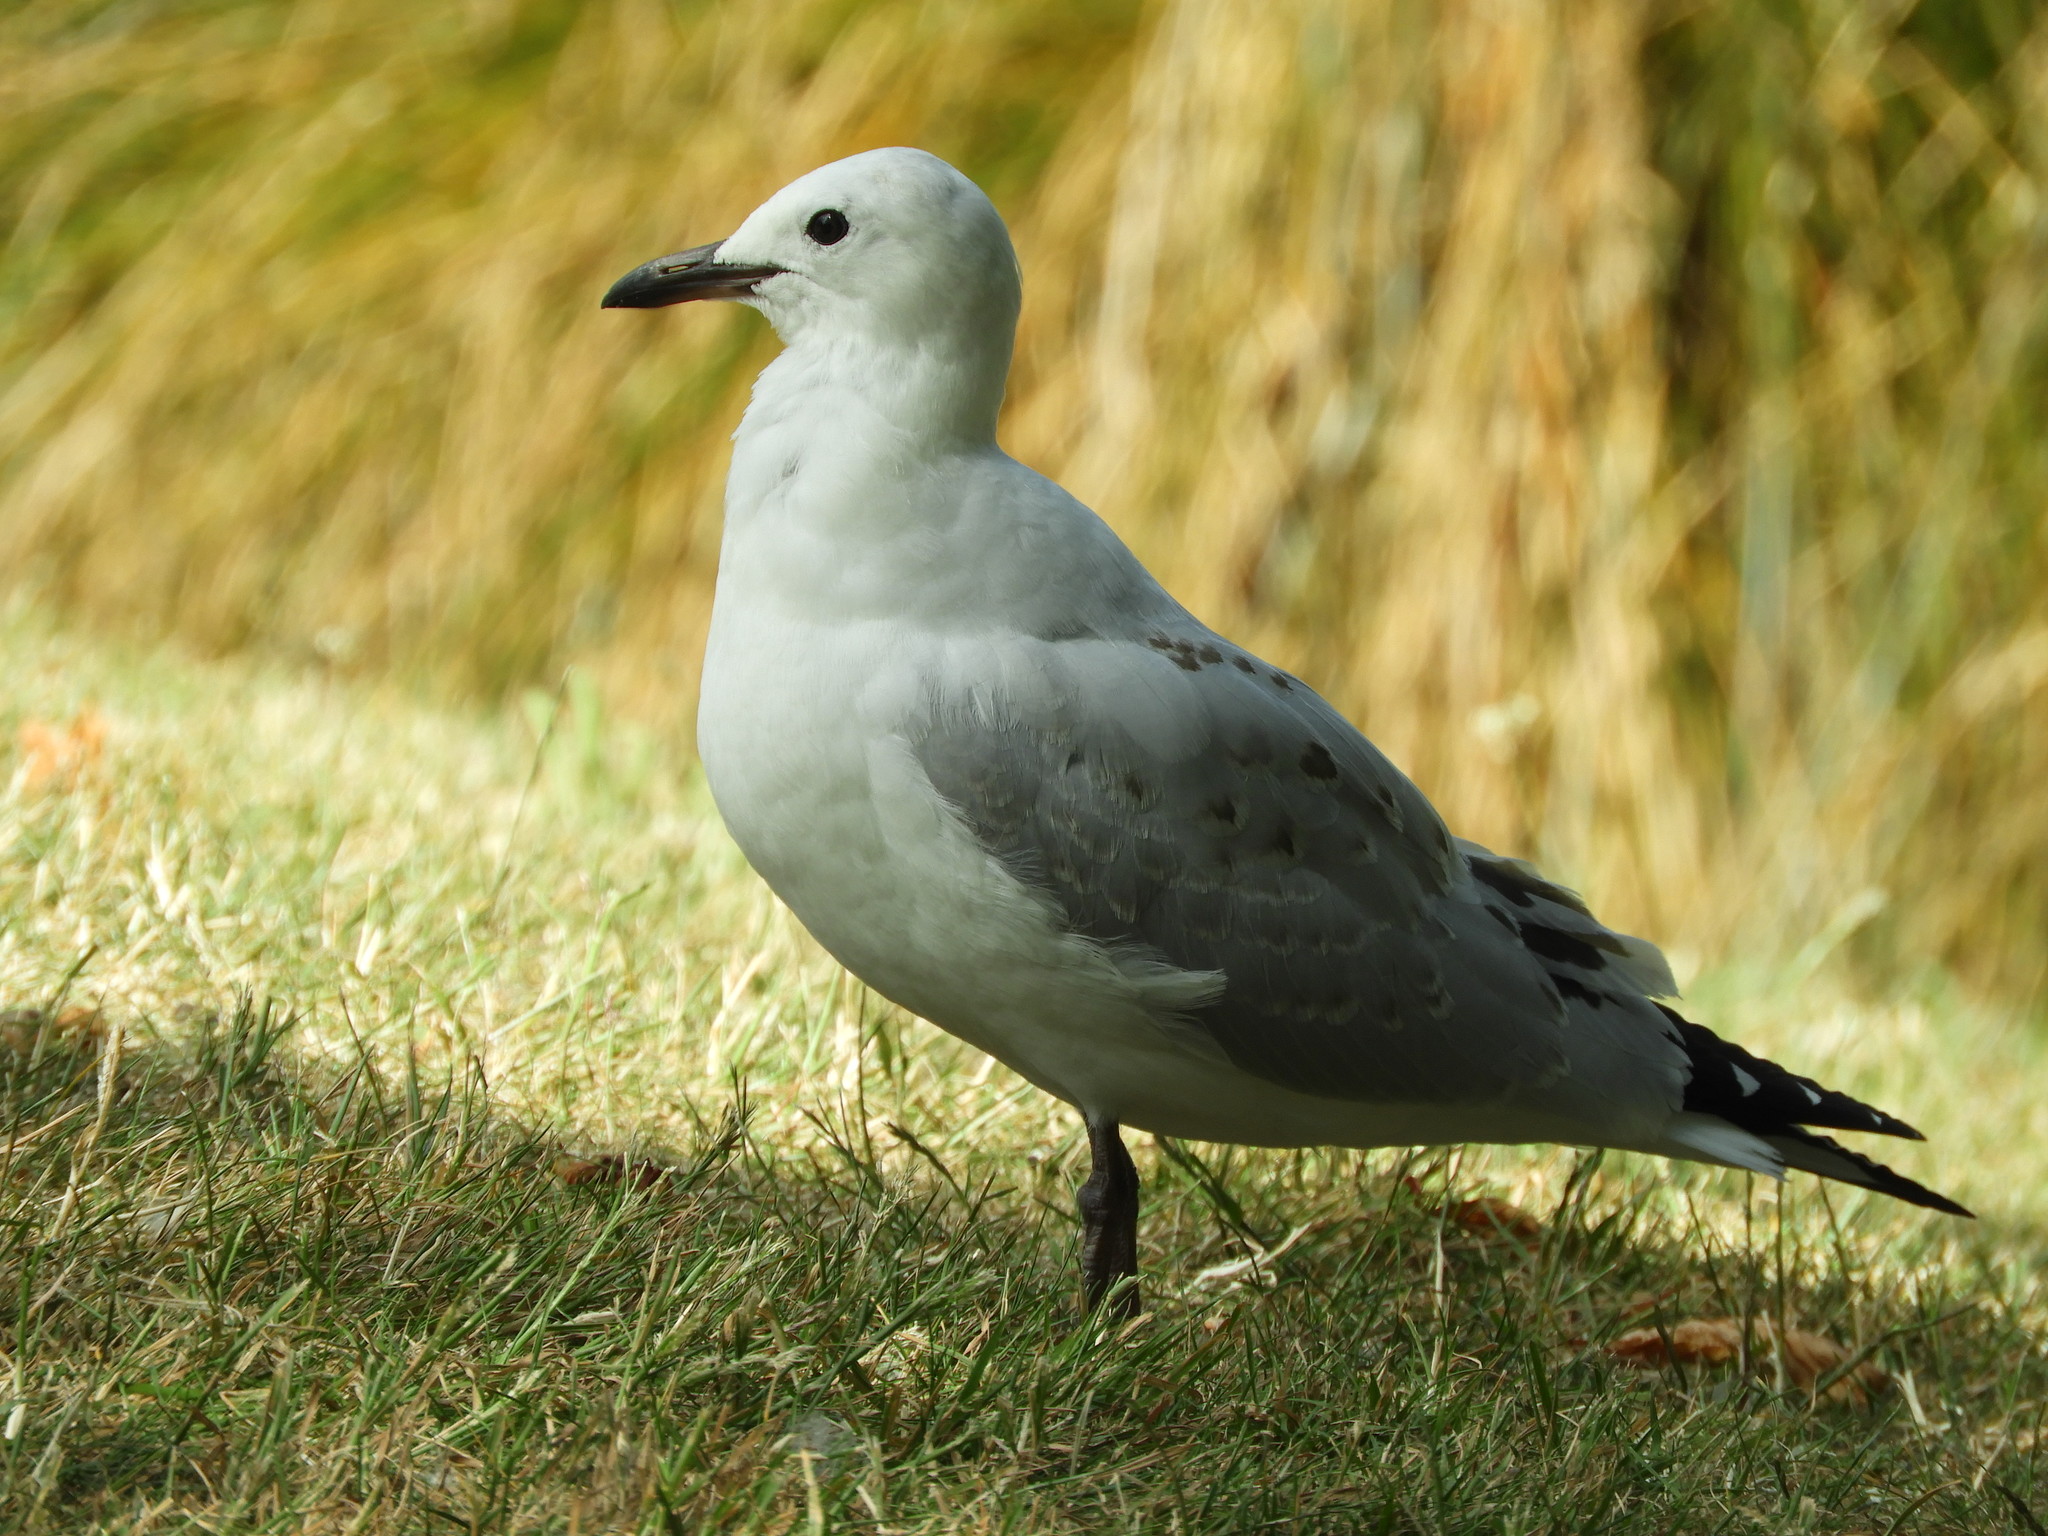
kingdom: Animalia
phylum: Chordata
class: Aves
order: Charadriiformes
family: Laridae
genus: Chroicocephalus
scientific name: Chroicocephalus novaehollandiae
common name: Silver gull
